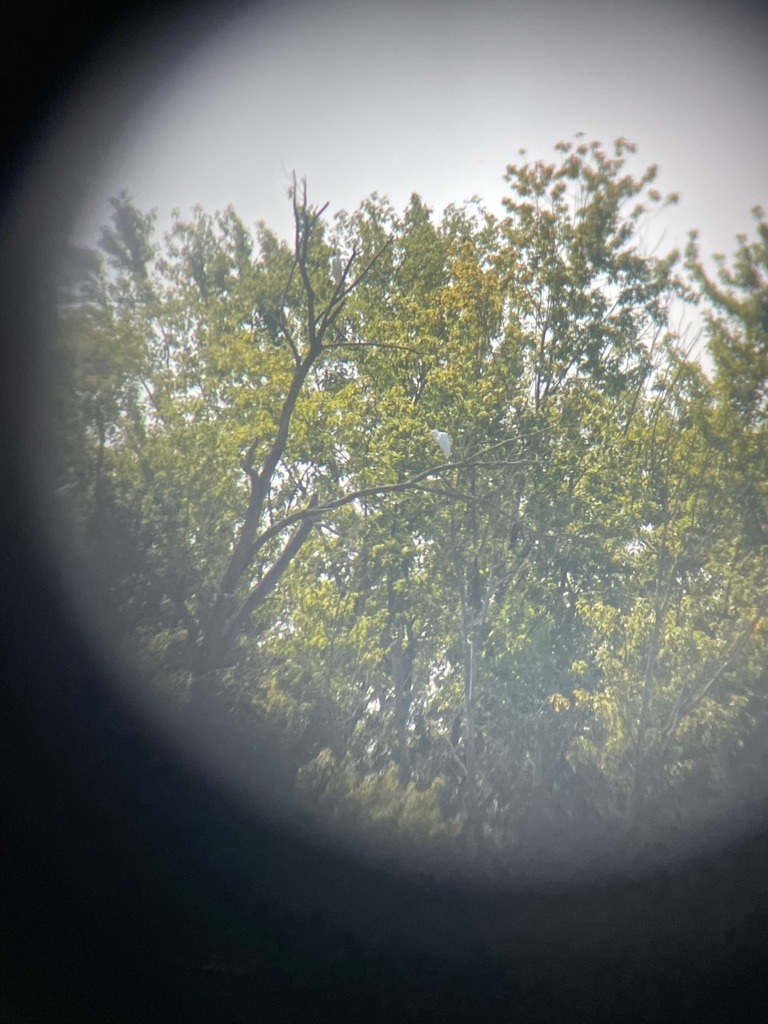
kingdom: Animalia
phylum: Chordata
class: Aves
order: Pelecaniformes
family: Ardeidae
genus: Ardea
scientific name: Ardea alba
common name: Great egret
